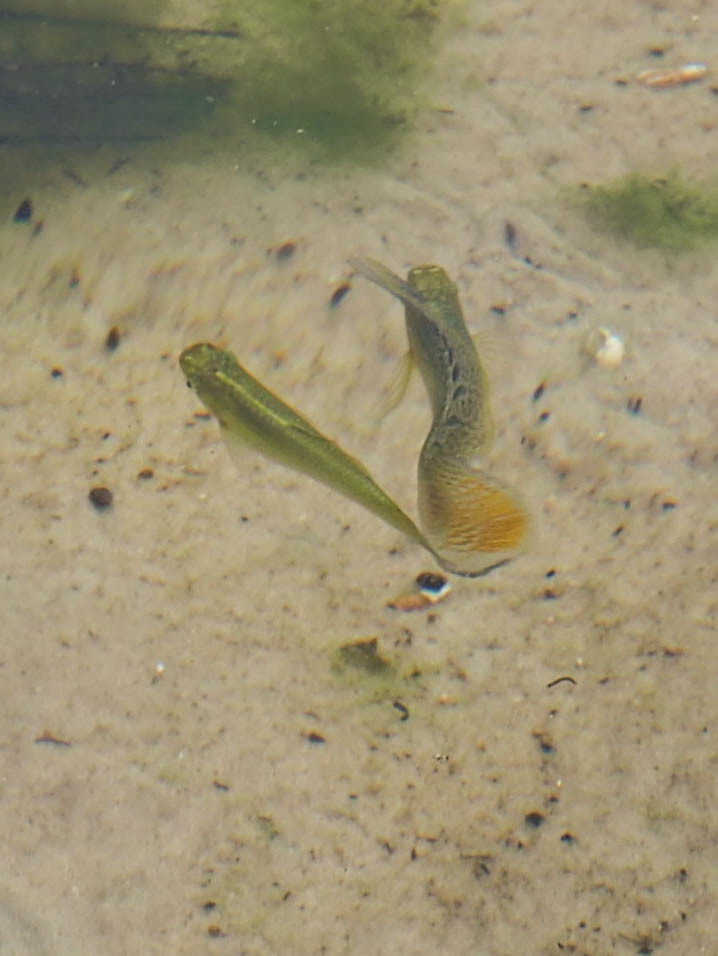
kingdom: Animalia
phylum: Chordata
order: Cyprinodontiformes
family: Poeciliidae
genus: Poecilia
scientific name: Poecilia latipinna
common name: Sailfin molly
